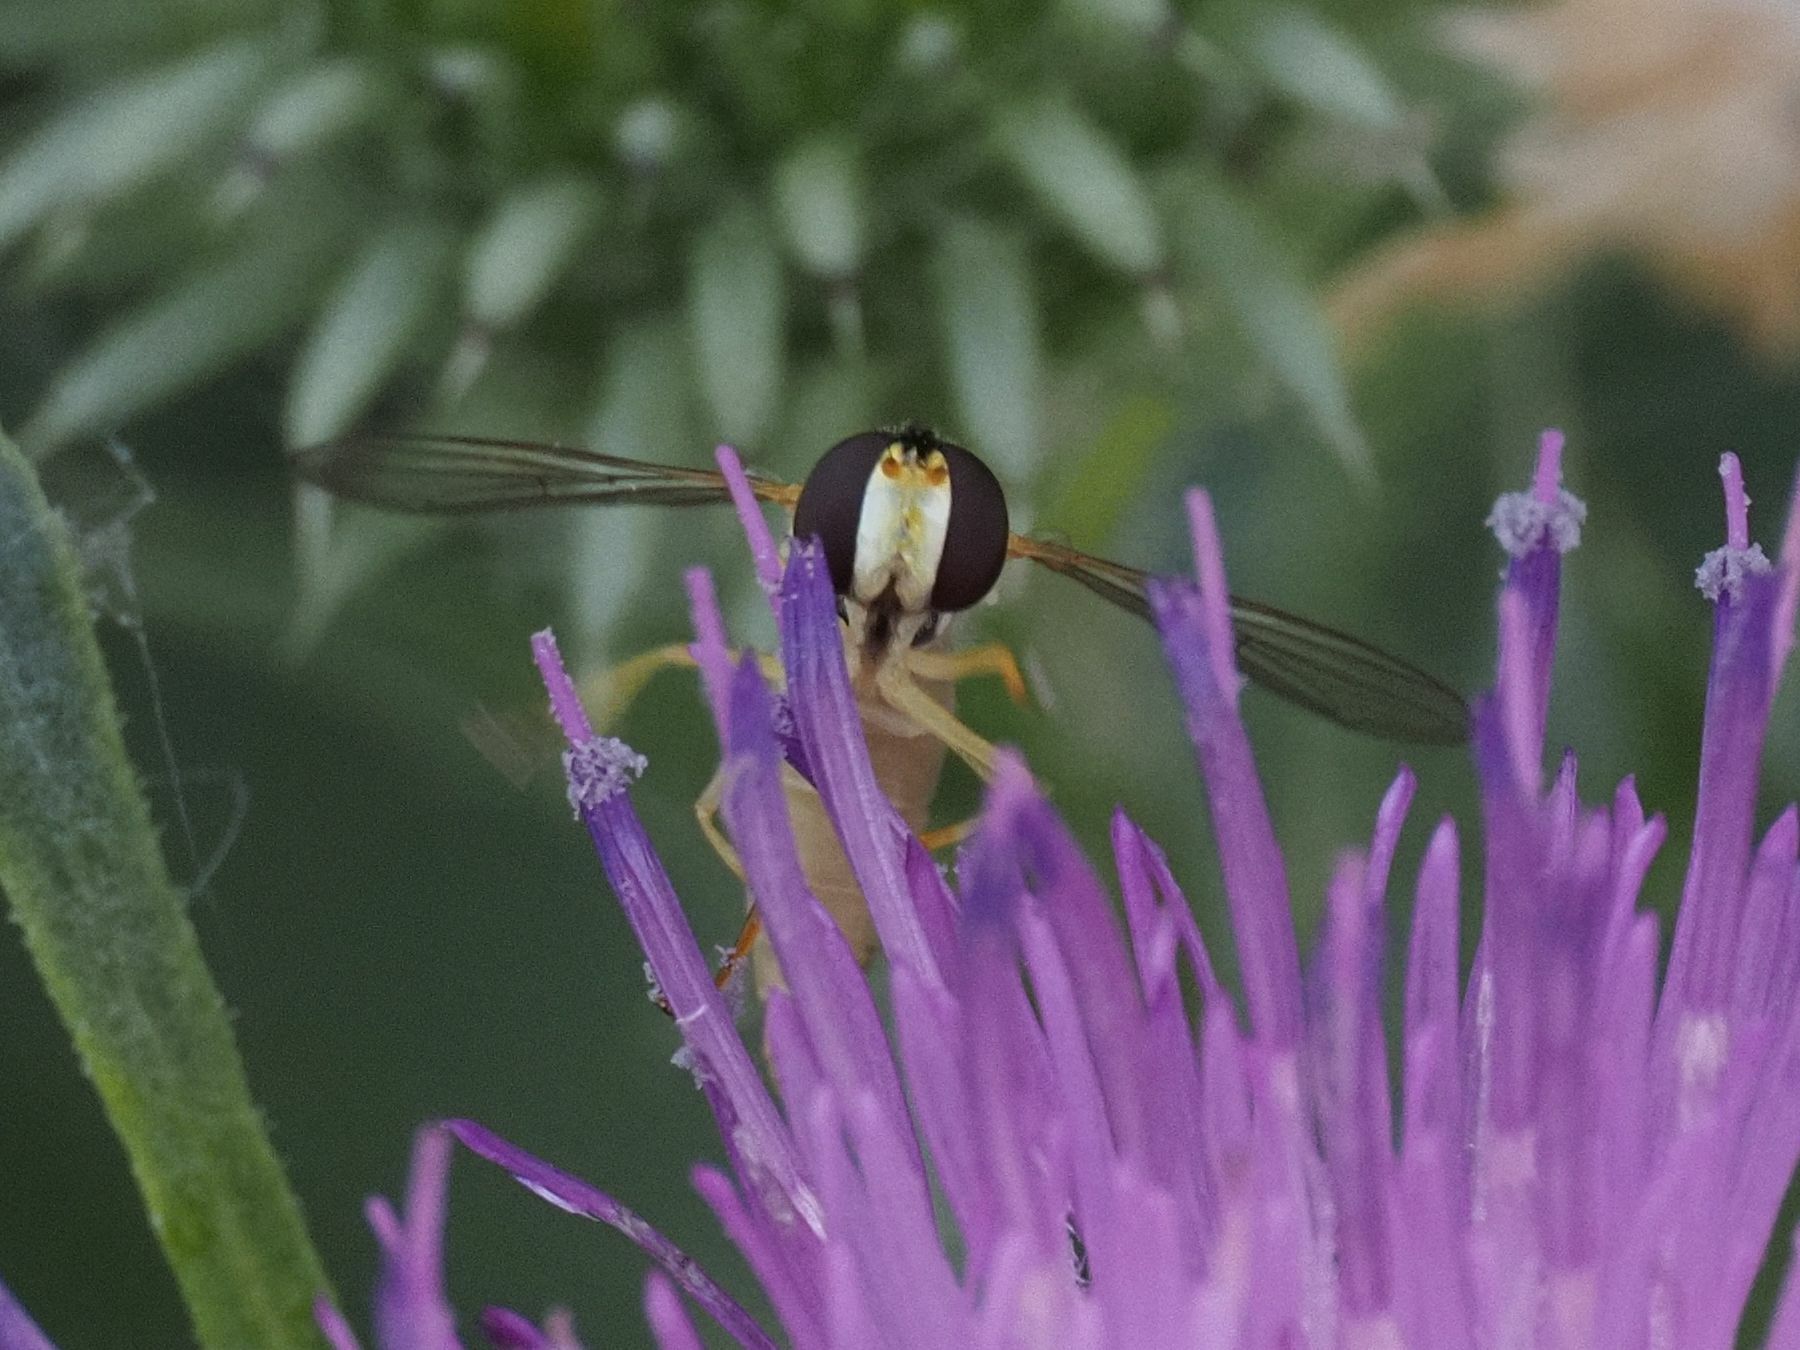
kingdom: Animalia
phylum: Arthropoda
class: Insecta
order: Diptera
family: Syrphidae
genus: Sphaerophoria
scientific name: Sphaerophoria
